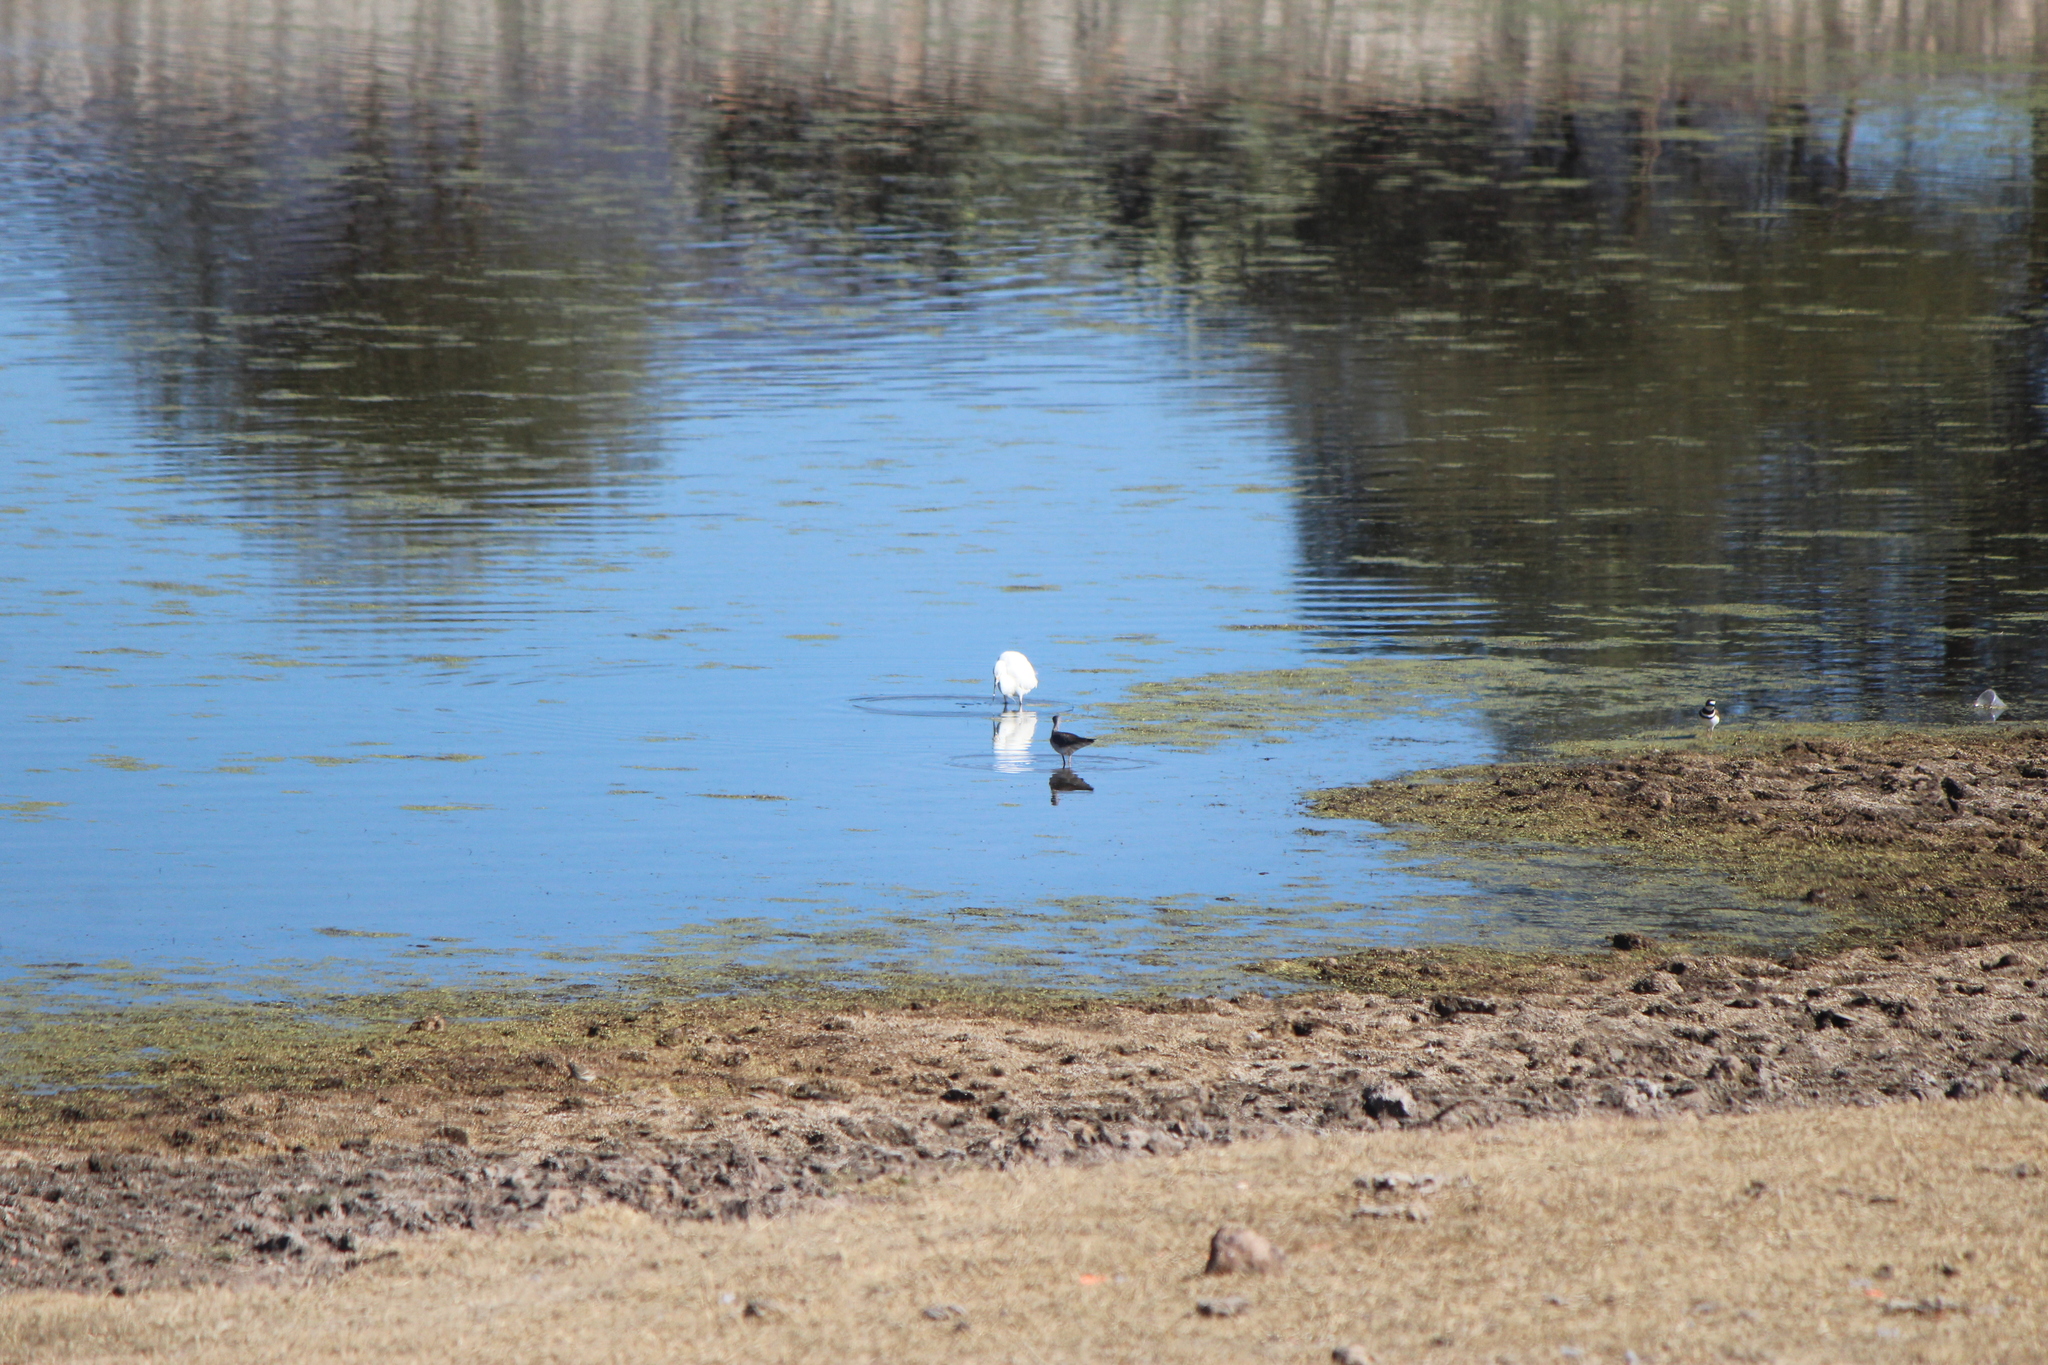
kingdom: Animalia
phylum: Chordata
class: Aves
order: Pelecaniformes
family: Ardeidae
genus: Egretta
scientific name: Egretta thula
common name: Snowy egret
